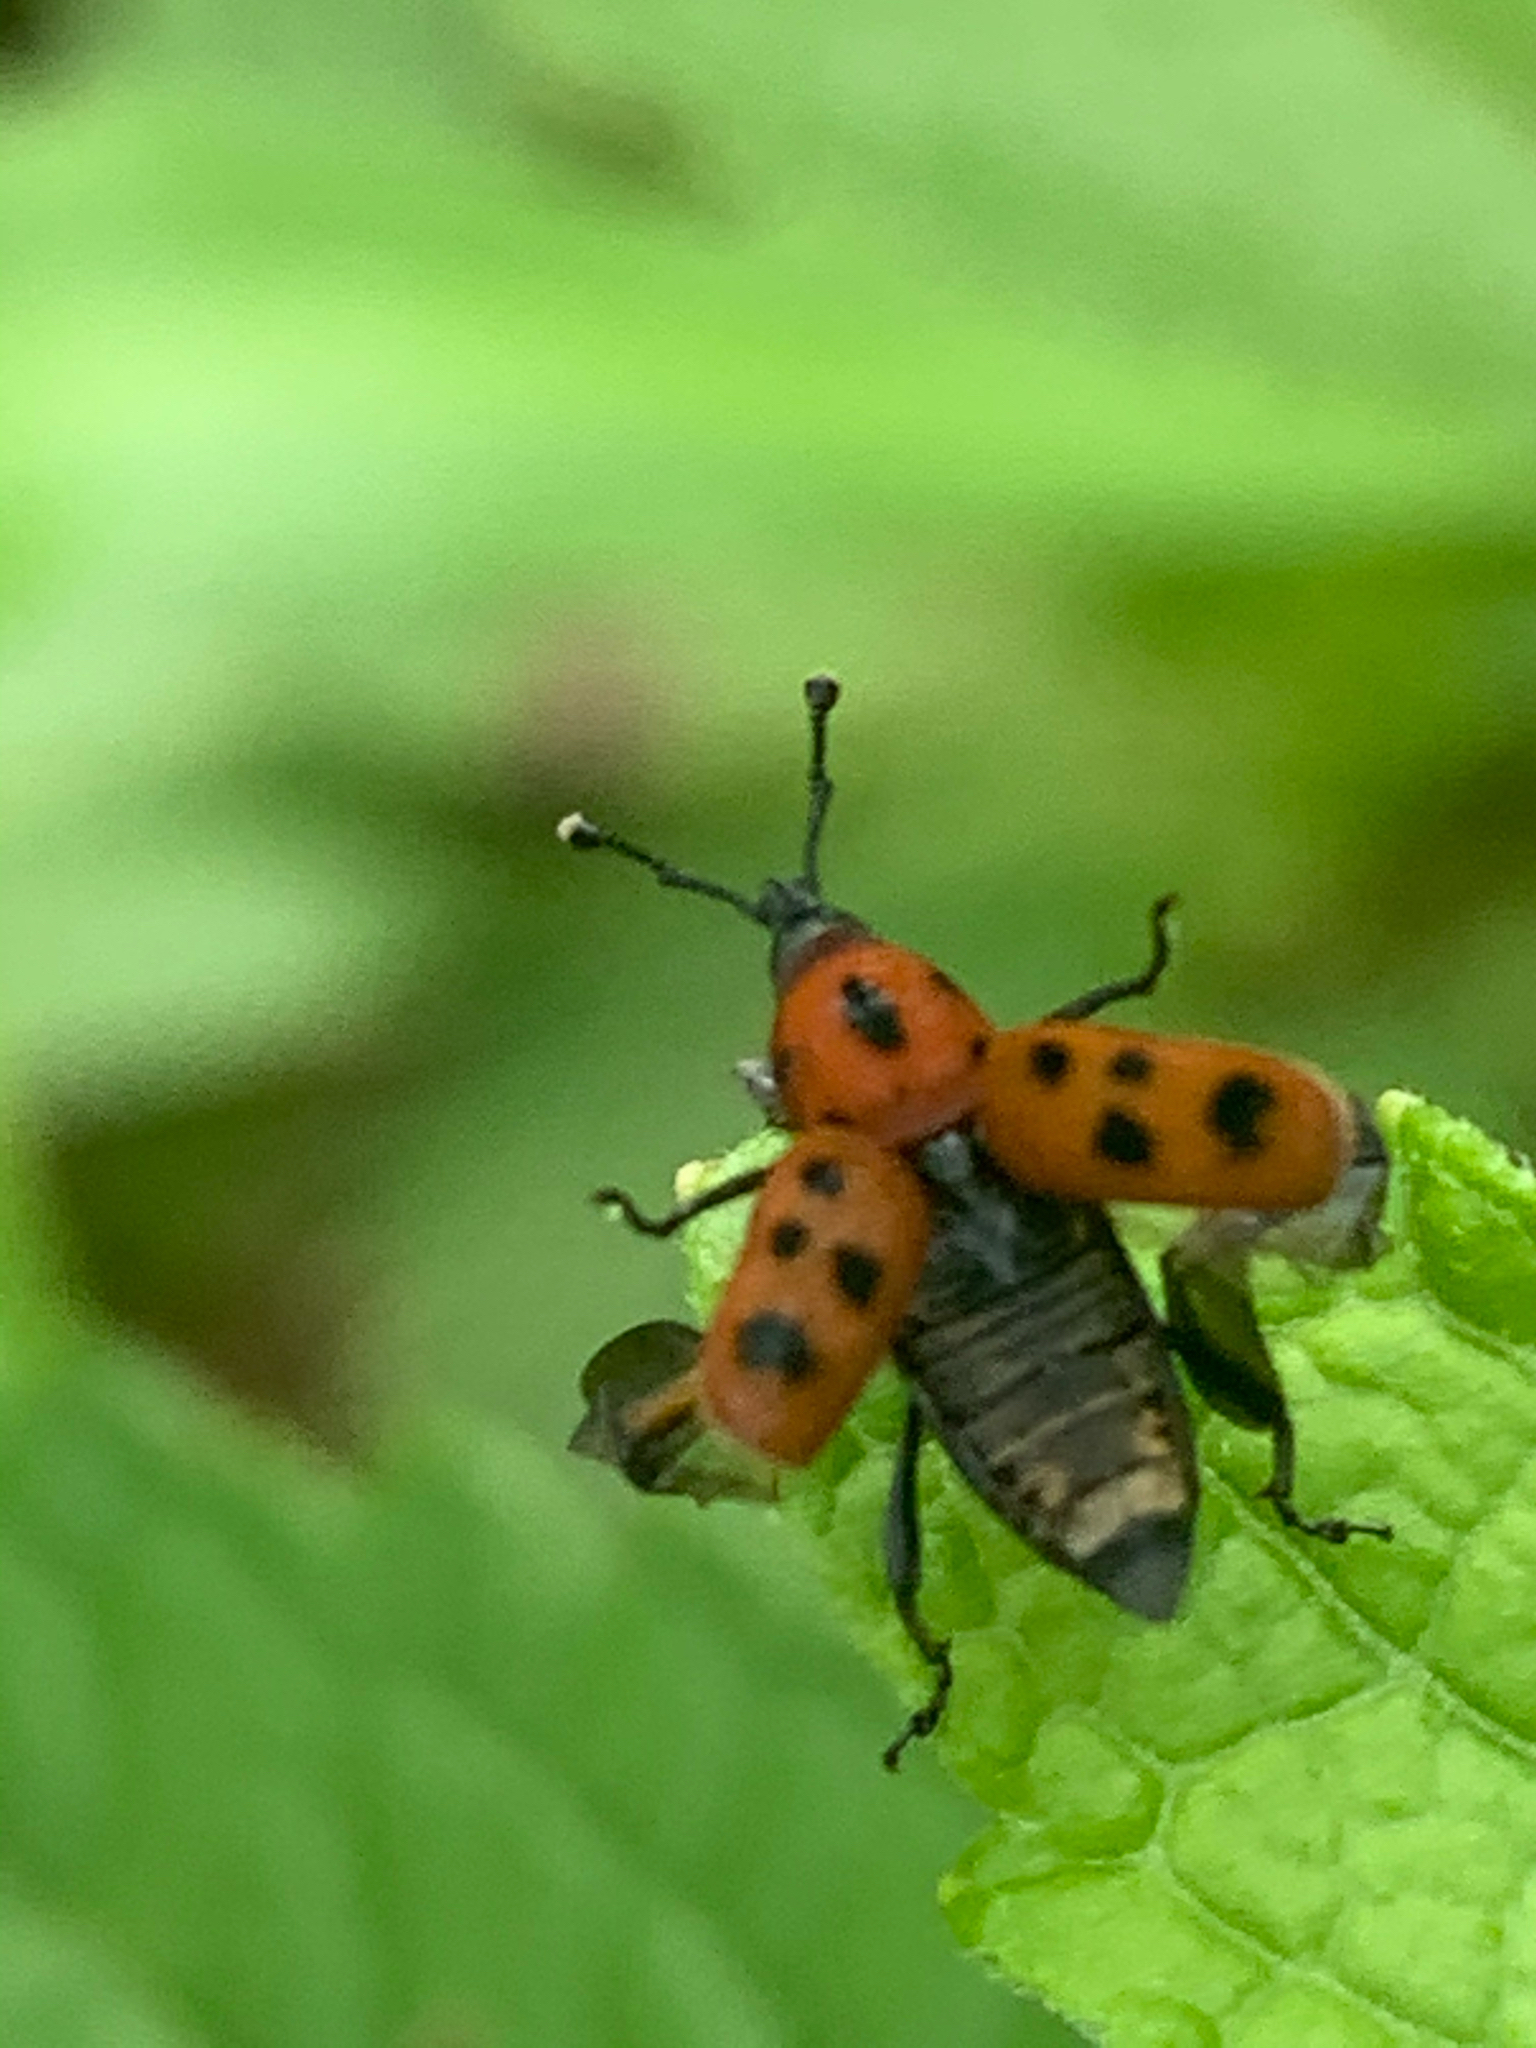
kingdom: Animalia
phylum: Arthropoda
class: Insecta
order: Coleoptera
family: Dryophthoridae
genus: Rhodobaenus
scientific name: Rhodobaenus tredecimpunctatus
